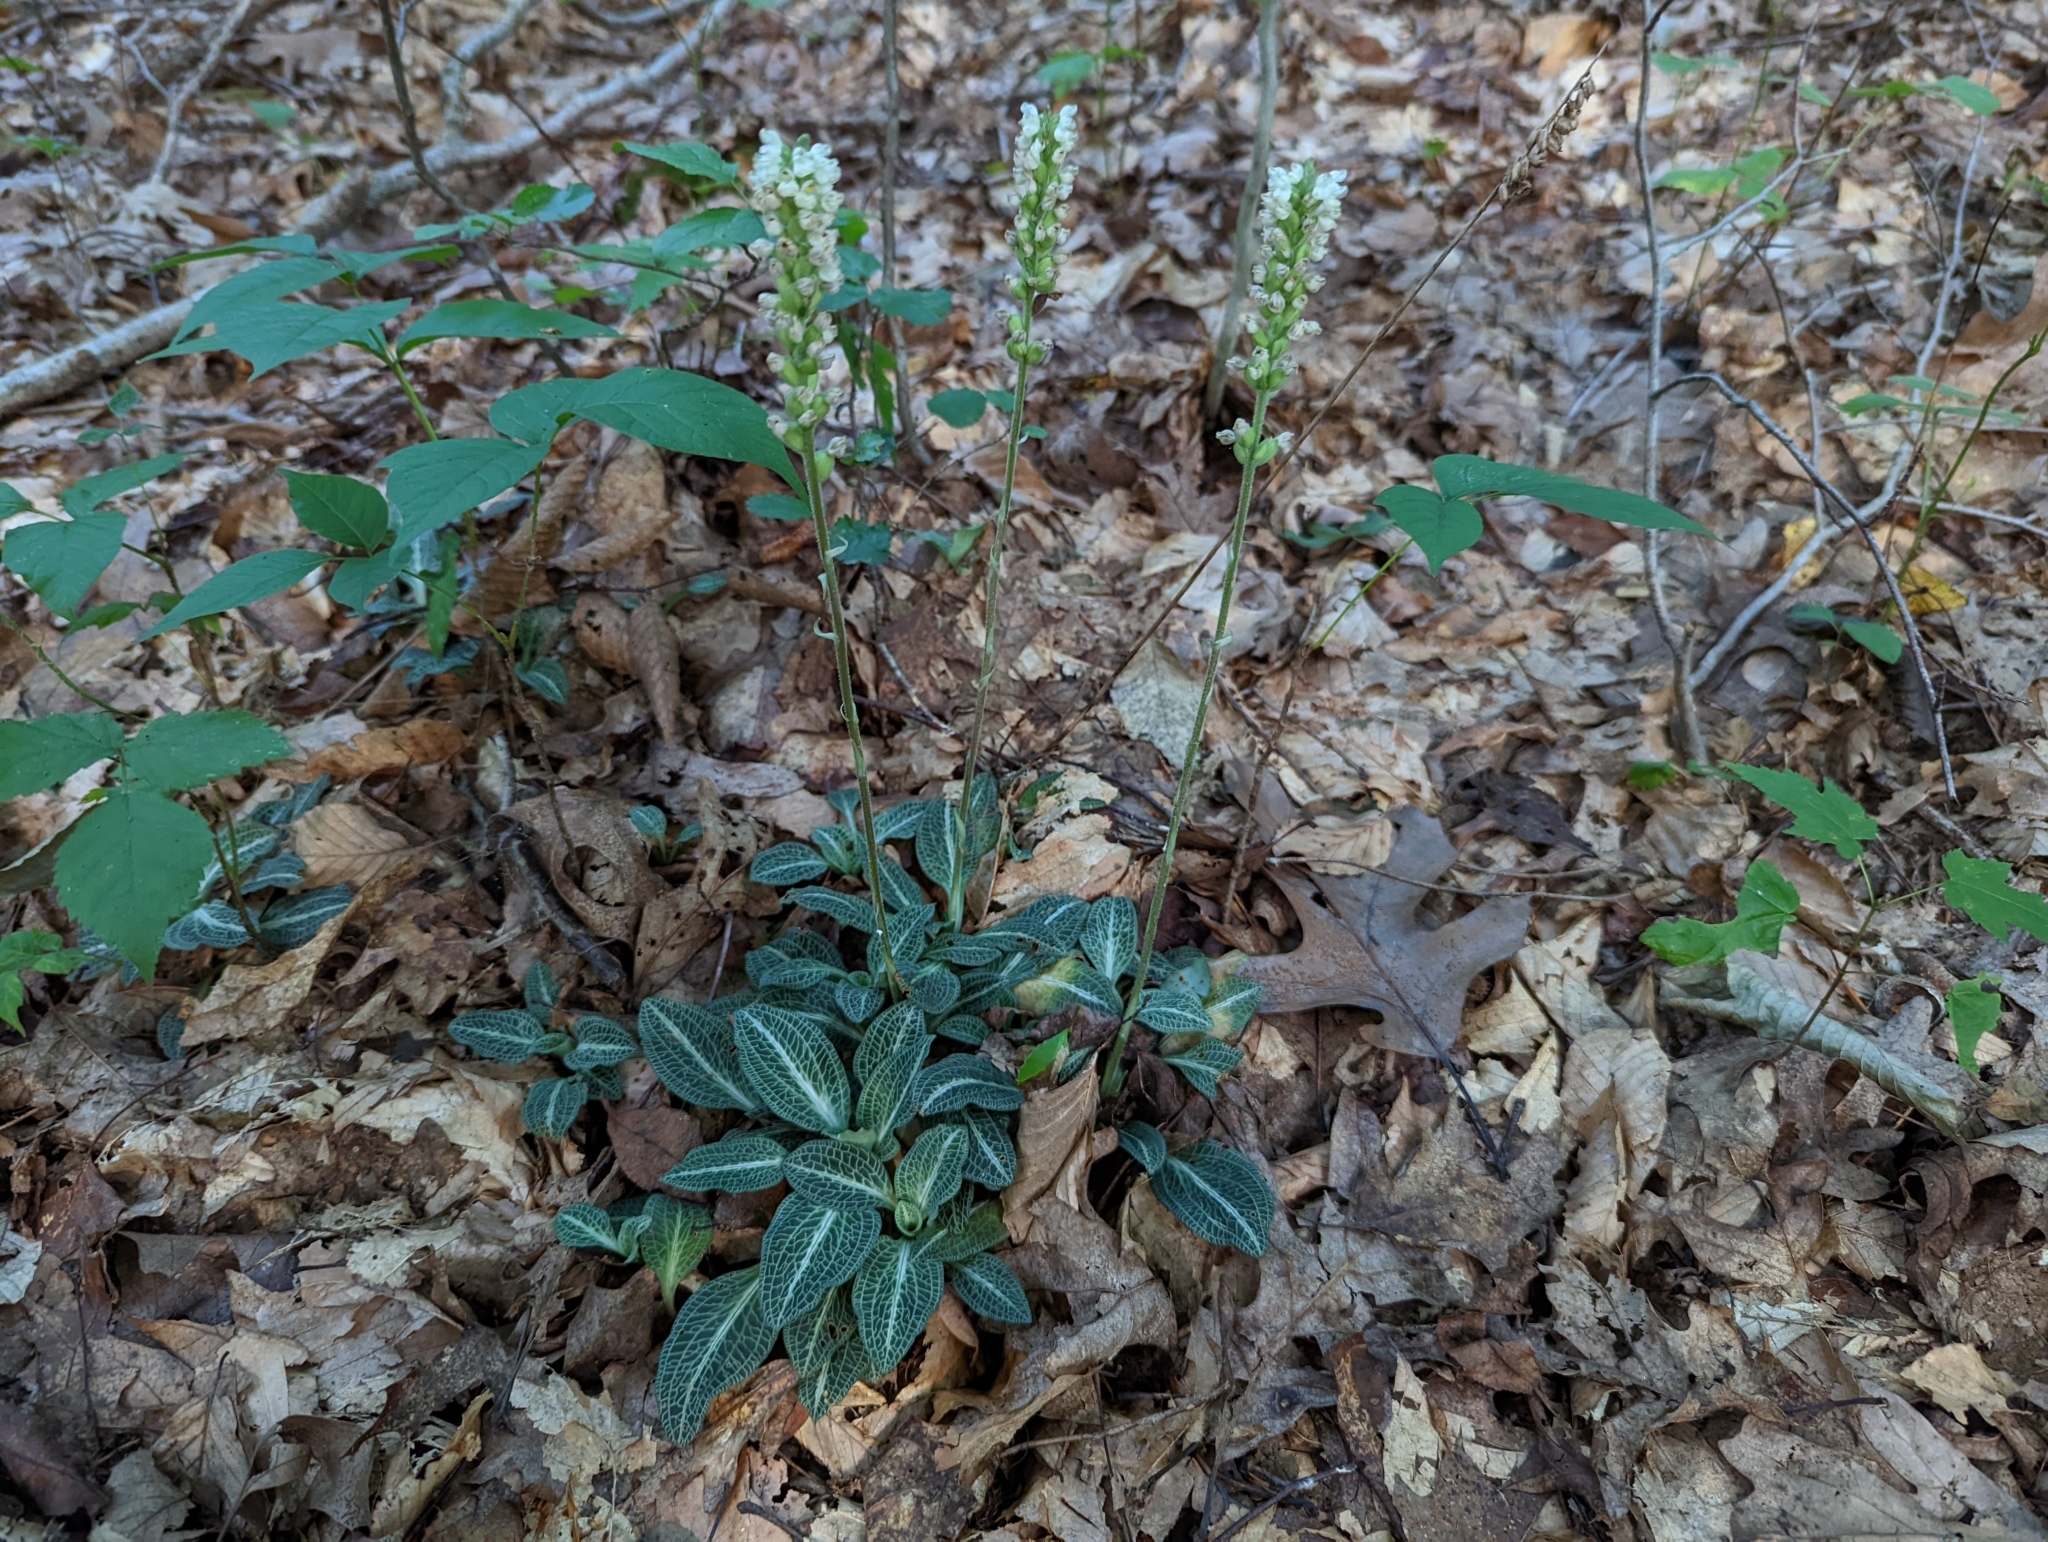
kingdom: Plantae
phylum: Tracheophyta
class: Liliopsida
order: Asparagales
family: Orchidaceae
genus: Goodyera
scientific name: Goodyera pubescens
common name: Downy rattlesnake-plantain
